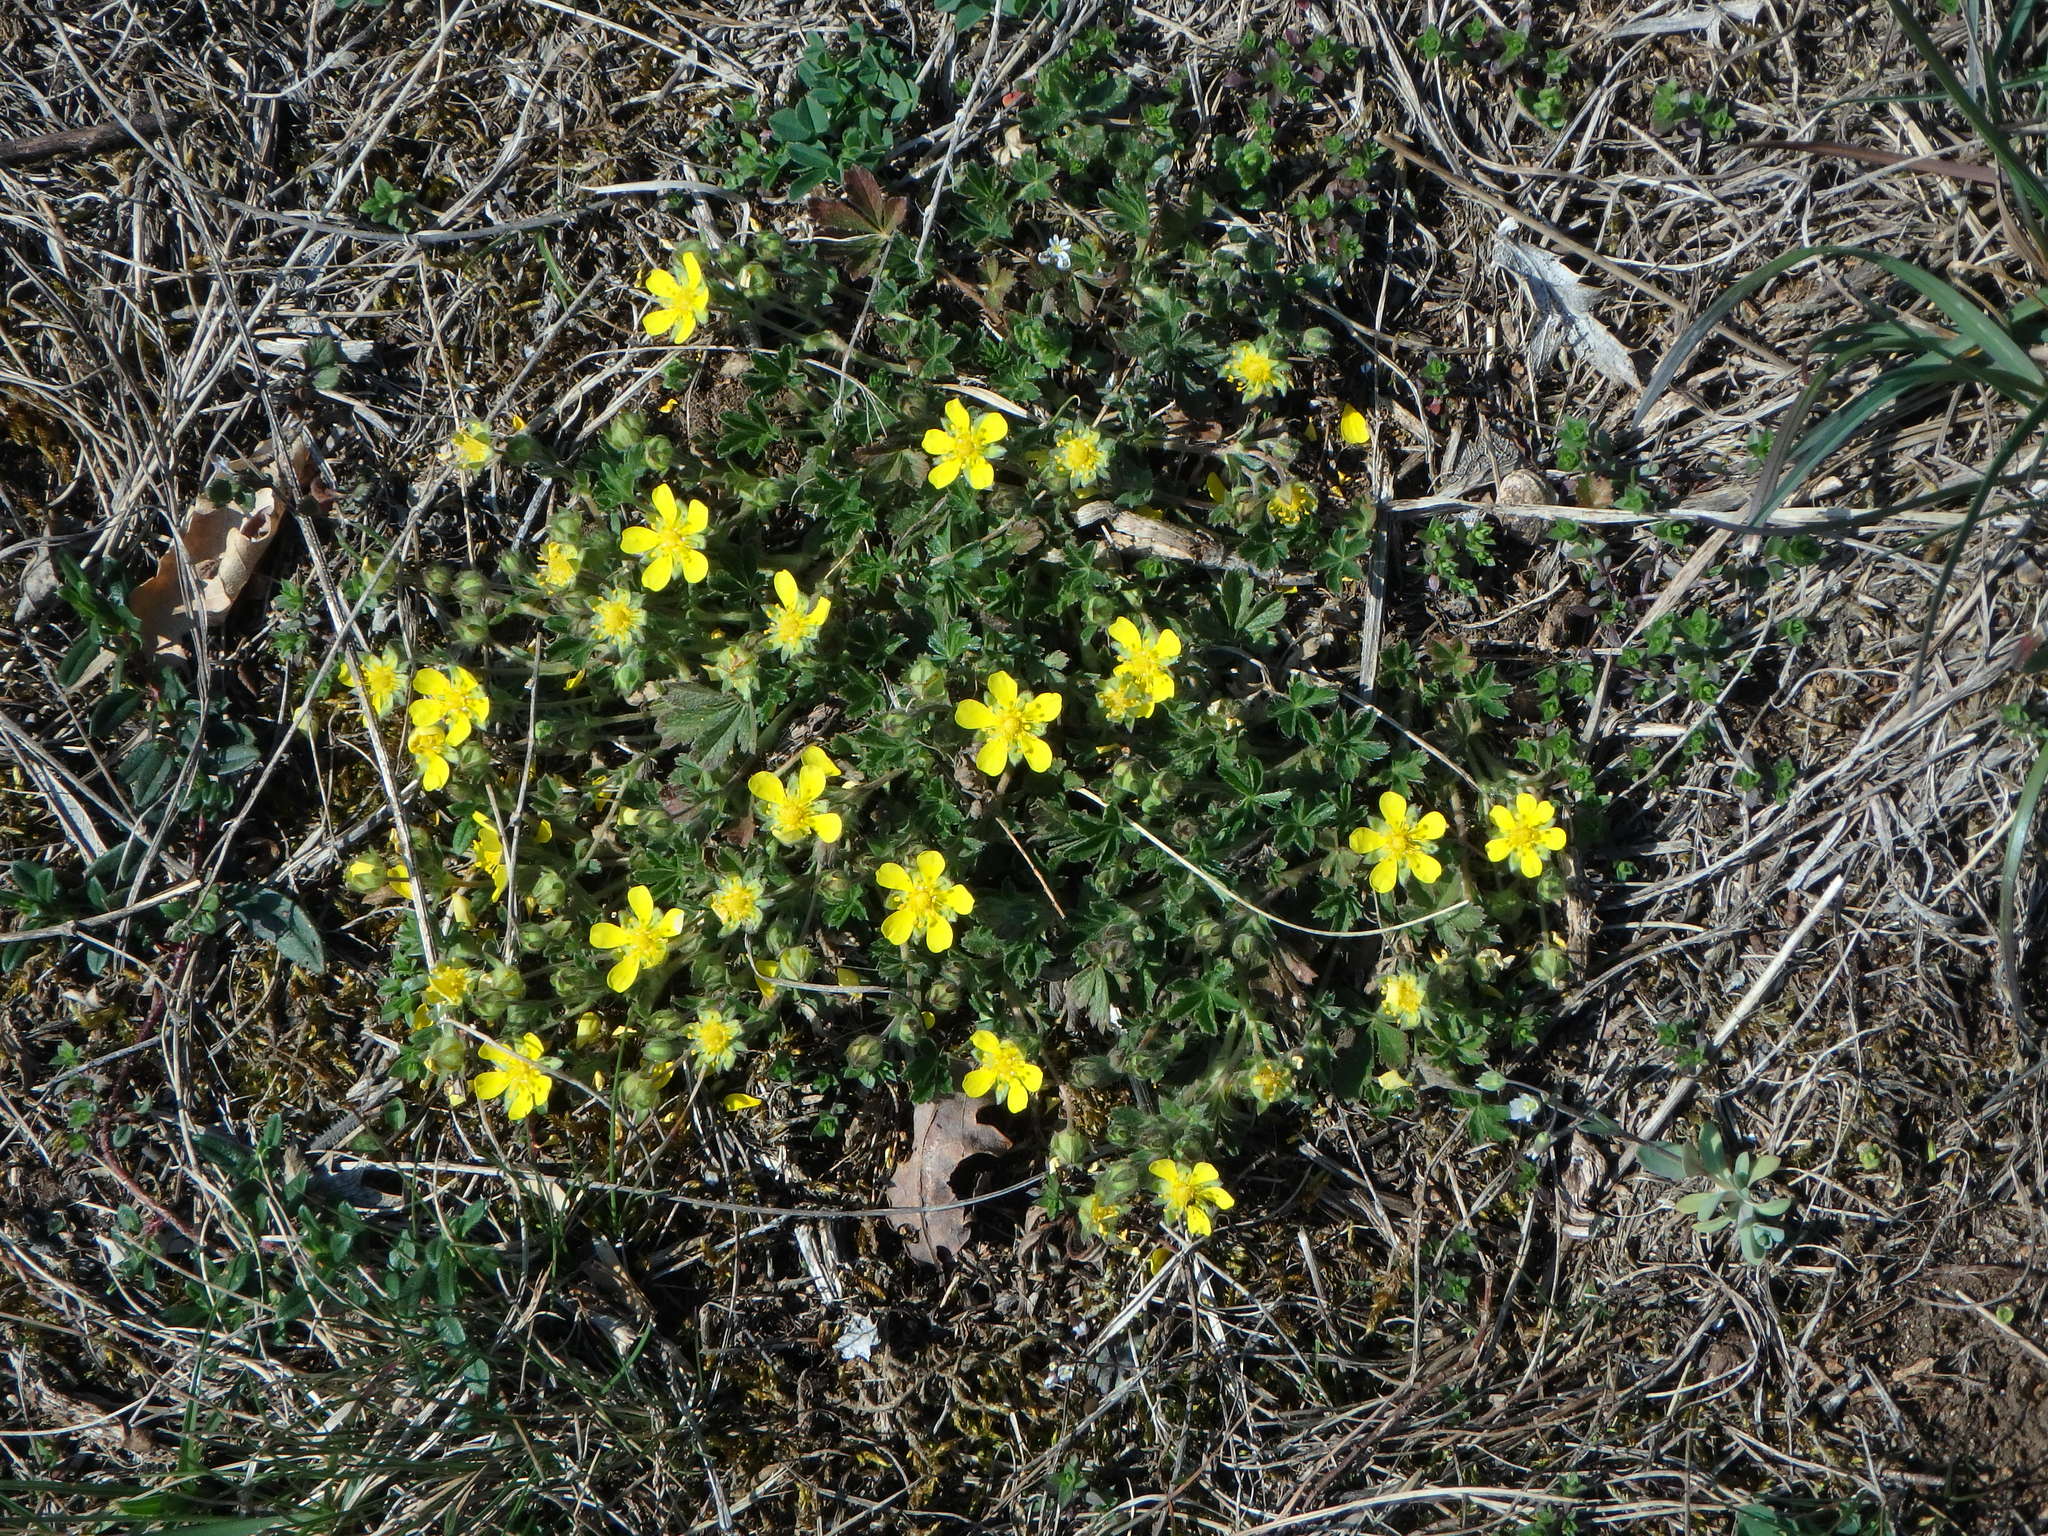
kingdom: Plantae
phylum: Tracheophyta
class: Magnoliopsida
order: Rosales
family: Rosaceae
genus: Potentilla
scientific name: Potentilla verna
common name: Spring cinquefoil
